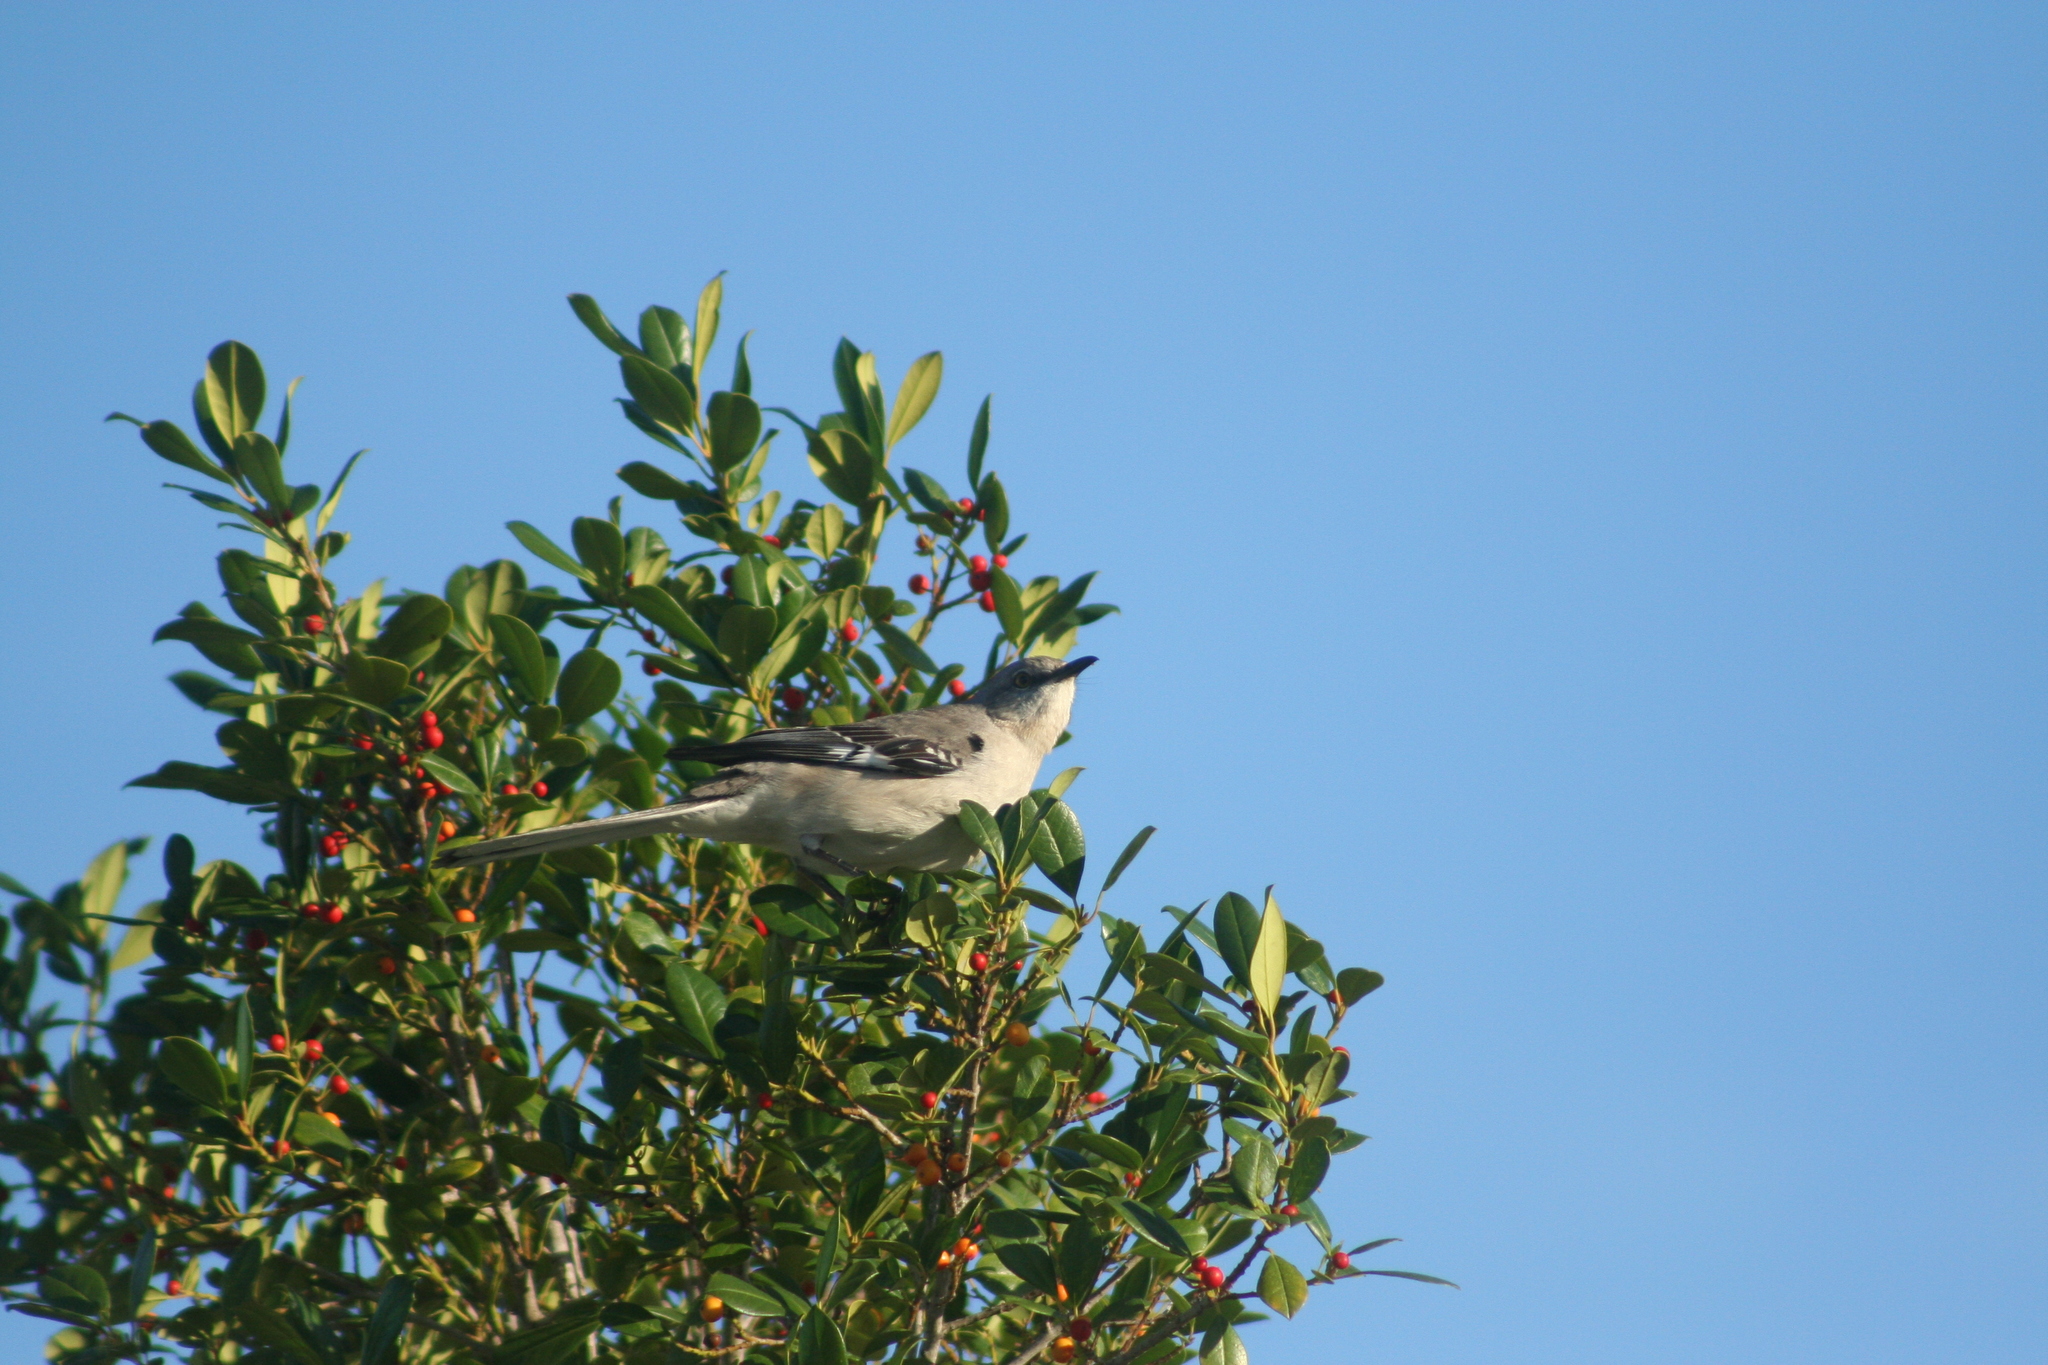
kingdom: Animalia
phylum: Chordata
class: Aves
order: Passeriformes
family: Mimidae
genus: Mimus
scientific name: Mimus polyglottos
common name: Northern mockingbird
